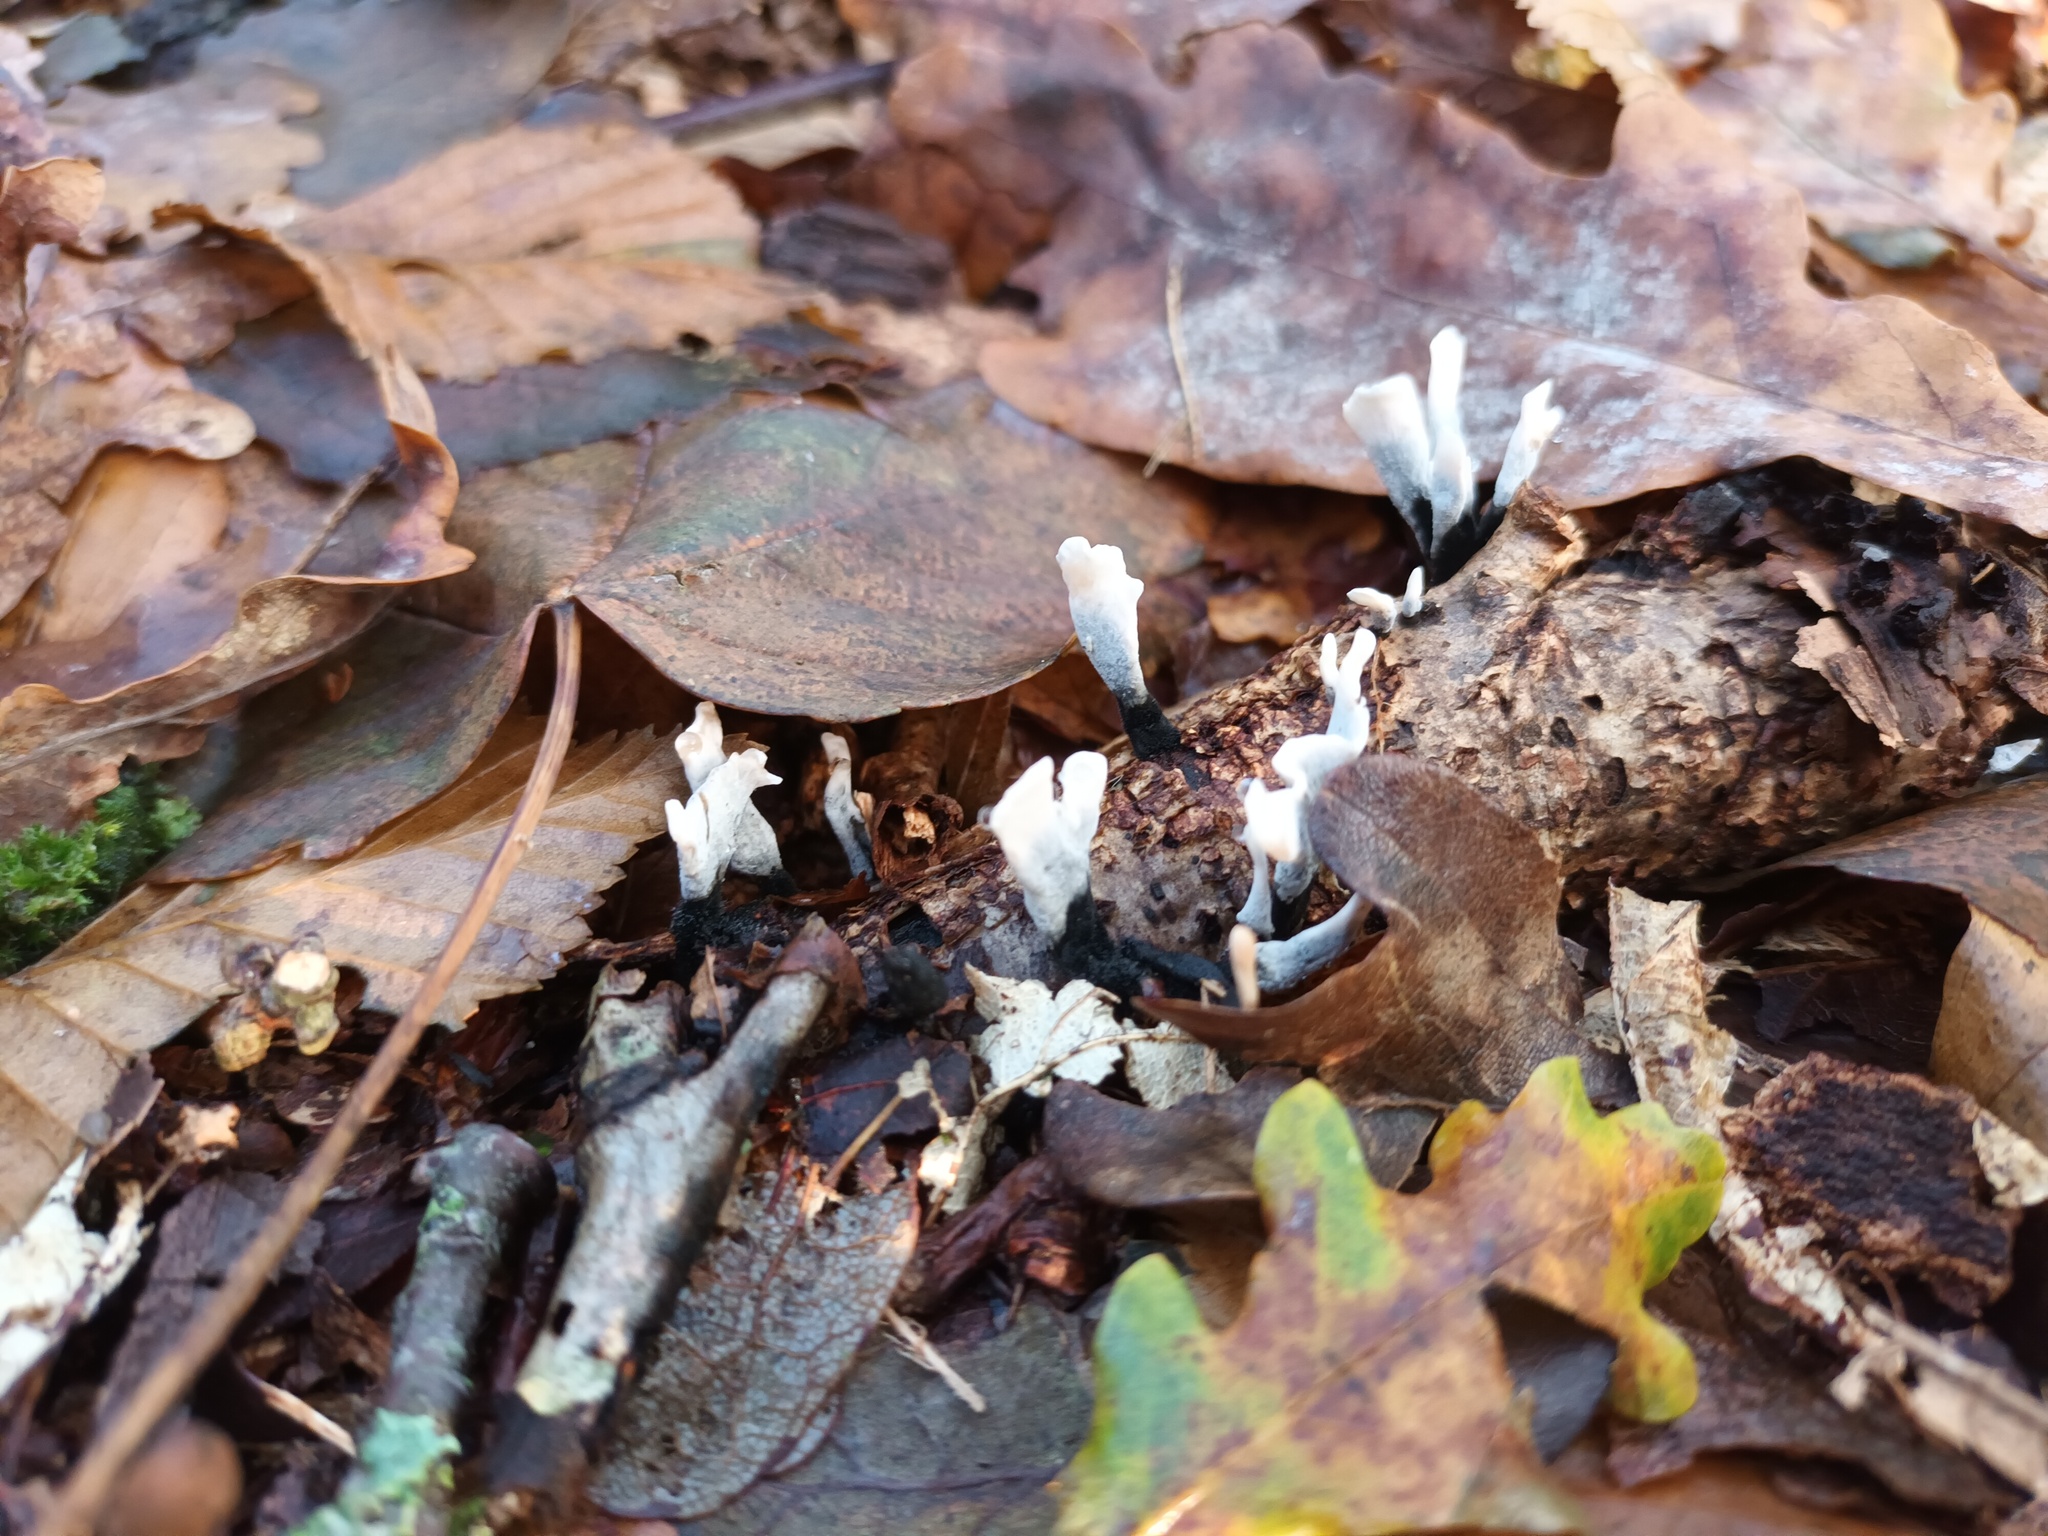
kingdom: Fungi
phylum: Ascomycota
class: Sordariomycetes
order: Xylariales
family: Xylariaceae
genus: Xylaria
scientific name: Xylaria hypoxylon
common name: Candle-snuff fungus
